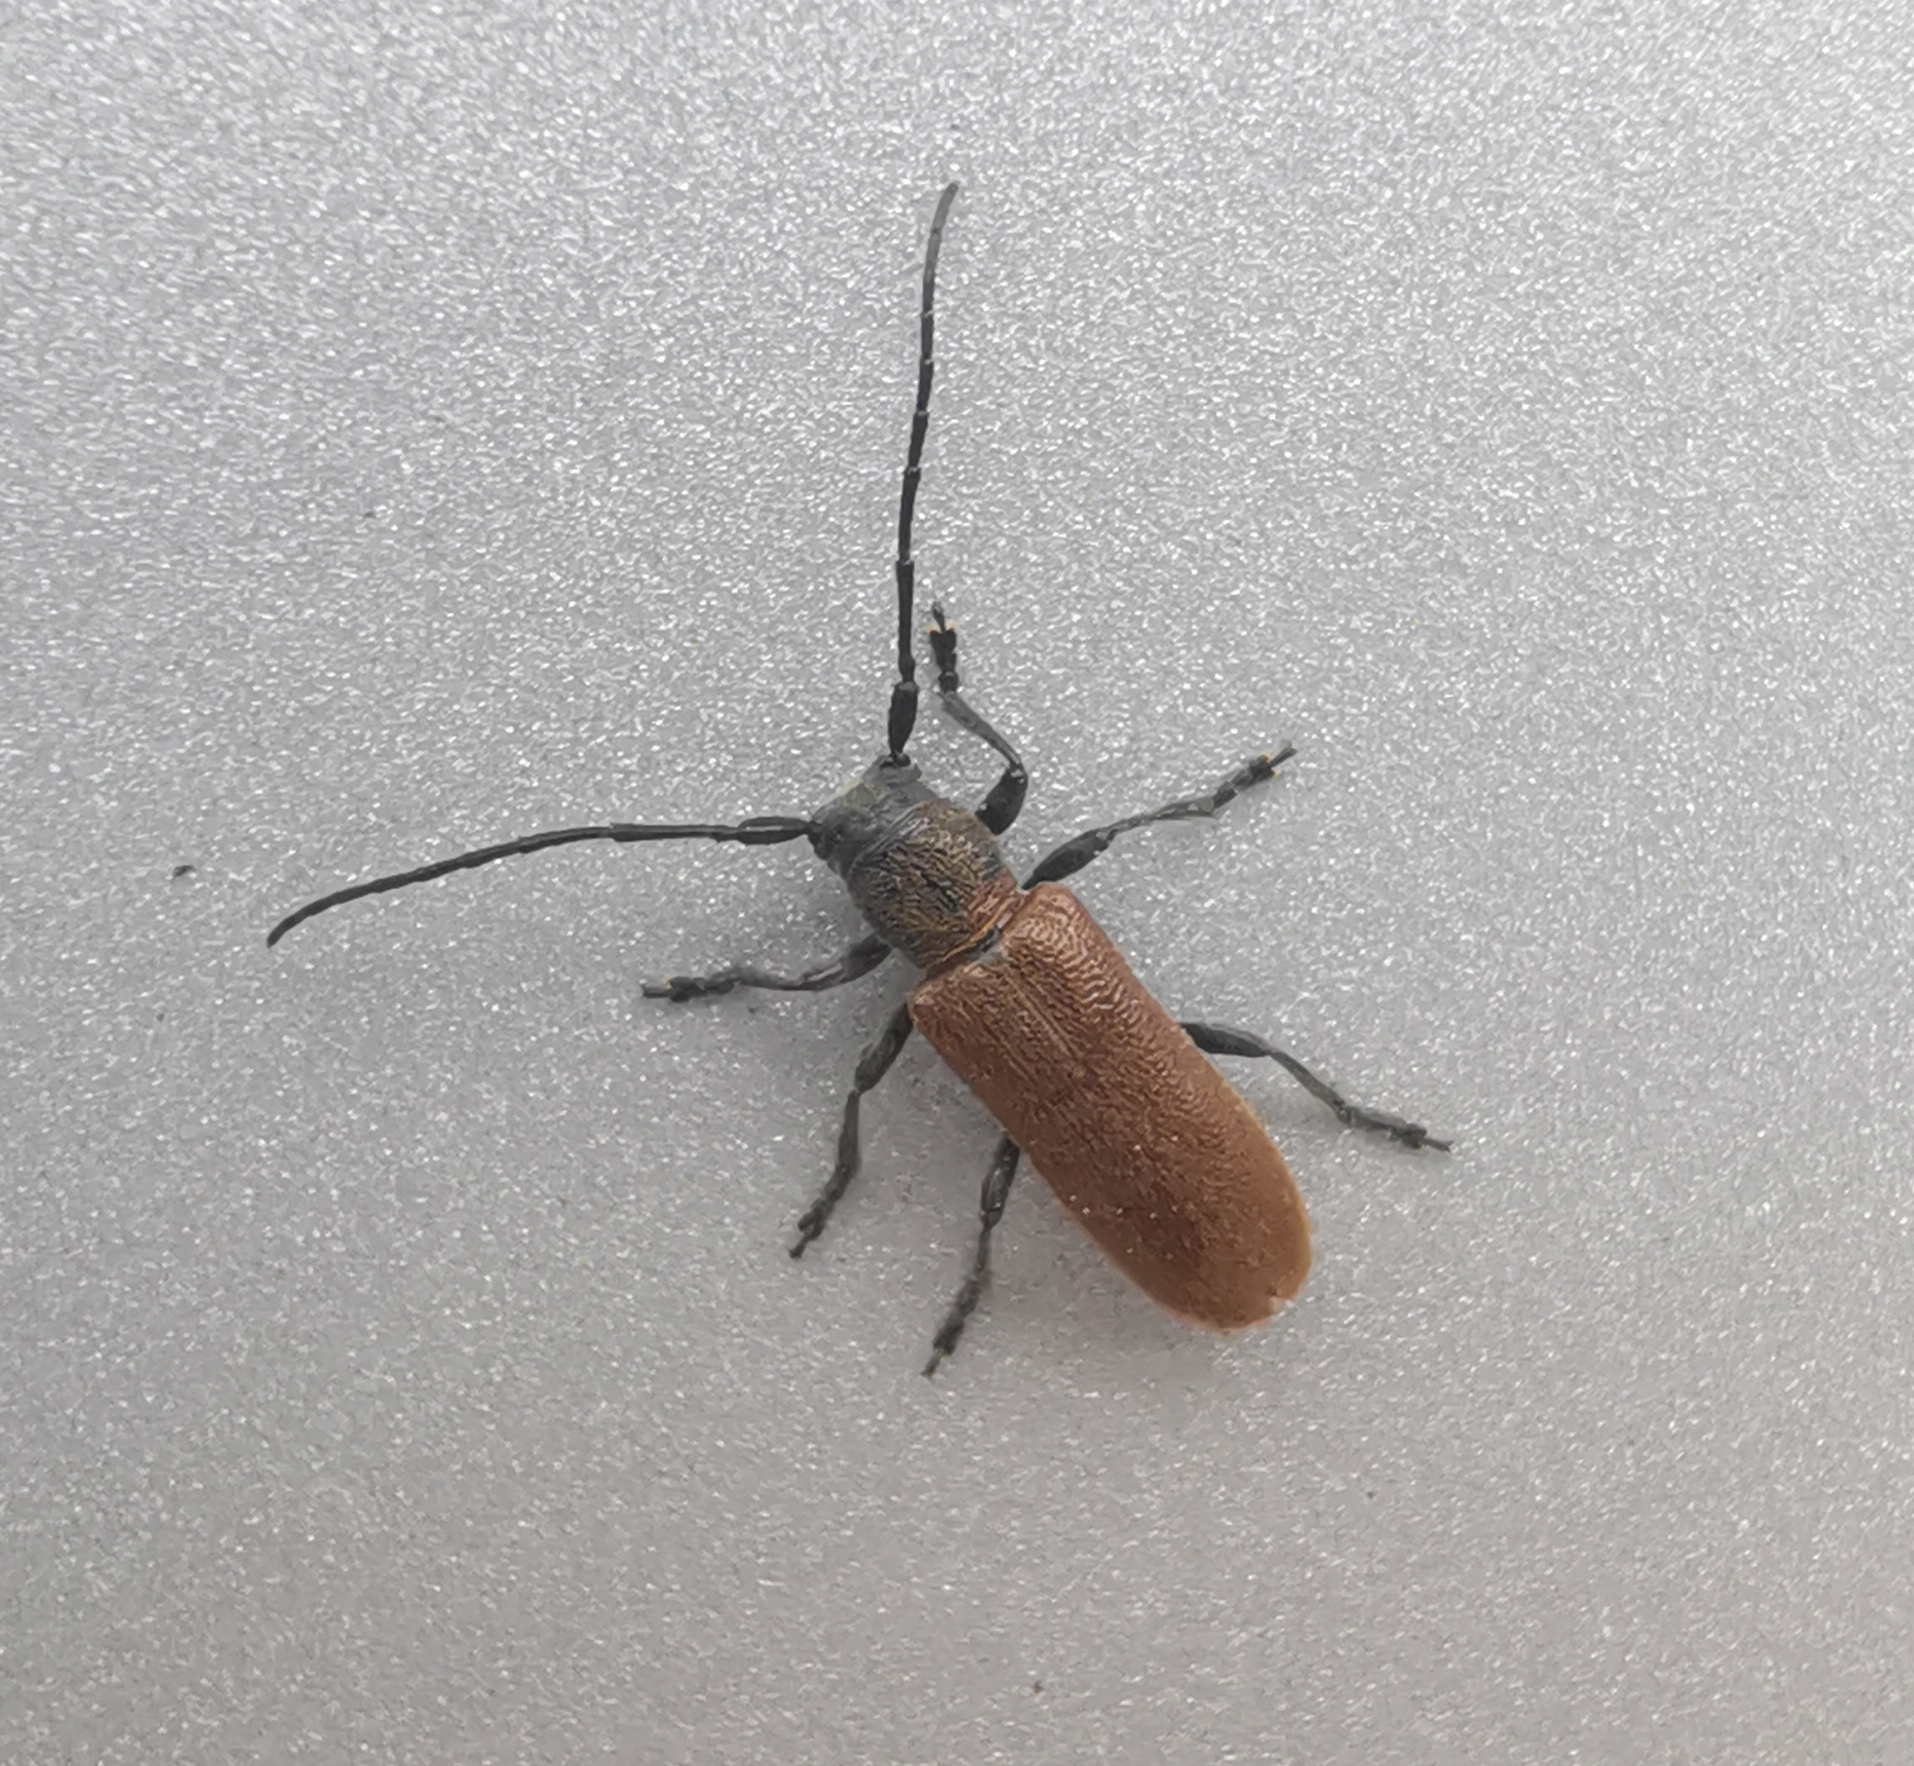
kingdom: Animalia
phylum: Arthropoda
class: Insecta
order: Coleoptera
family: Cerambycidae
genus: Anaesthetis
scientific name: Anaesthetis testacea
